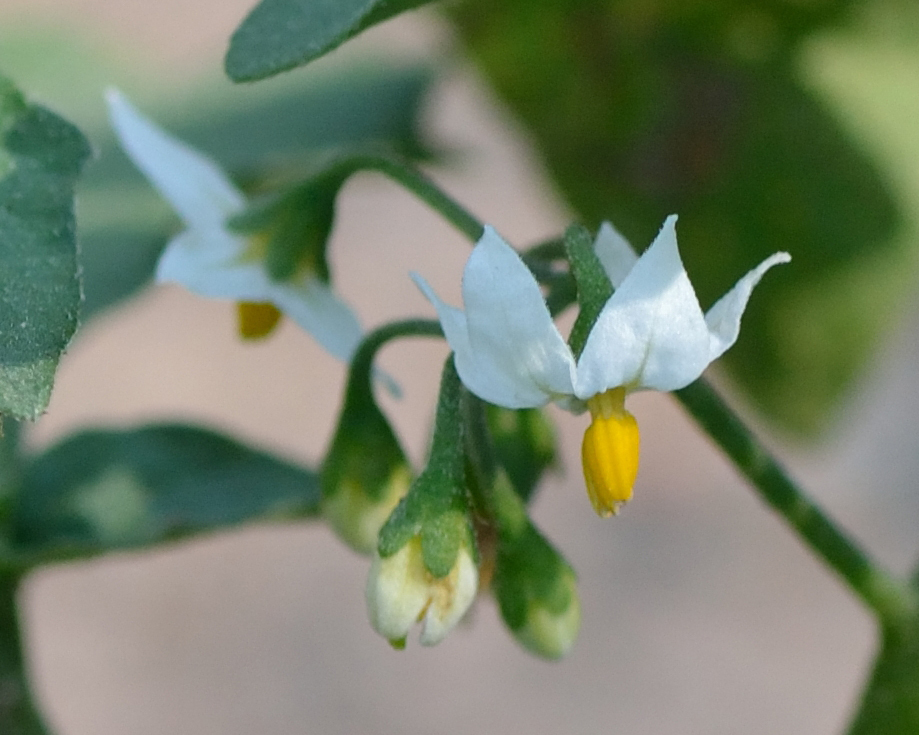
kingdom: Plantae
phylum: Tracheophyta
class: Magnoliopsida
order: Solanales
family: Solanaceae
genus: Solanum
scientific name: Solanum nigrum
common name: Black nightshade
